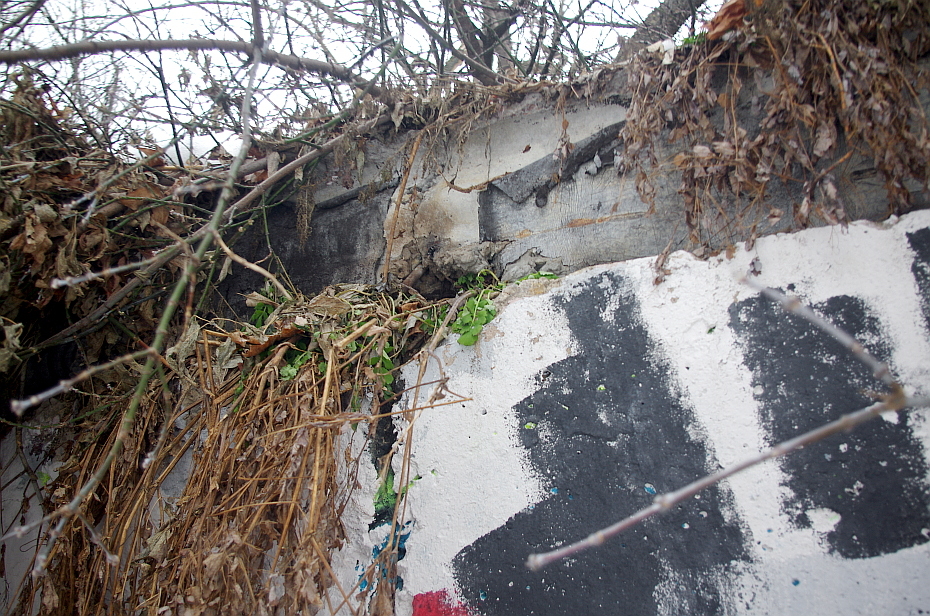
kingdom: Plantae
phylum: Tracheophyta
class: Magnoliopsida
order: Ranunculales
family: Papaveraceae
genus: Chelidonium
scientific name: Chelidonium majus
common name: Greater celandine
